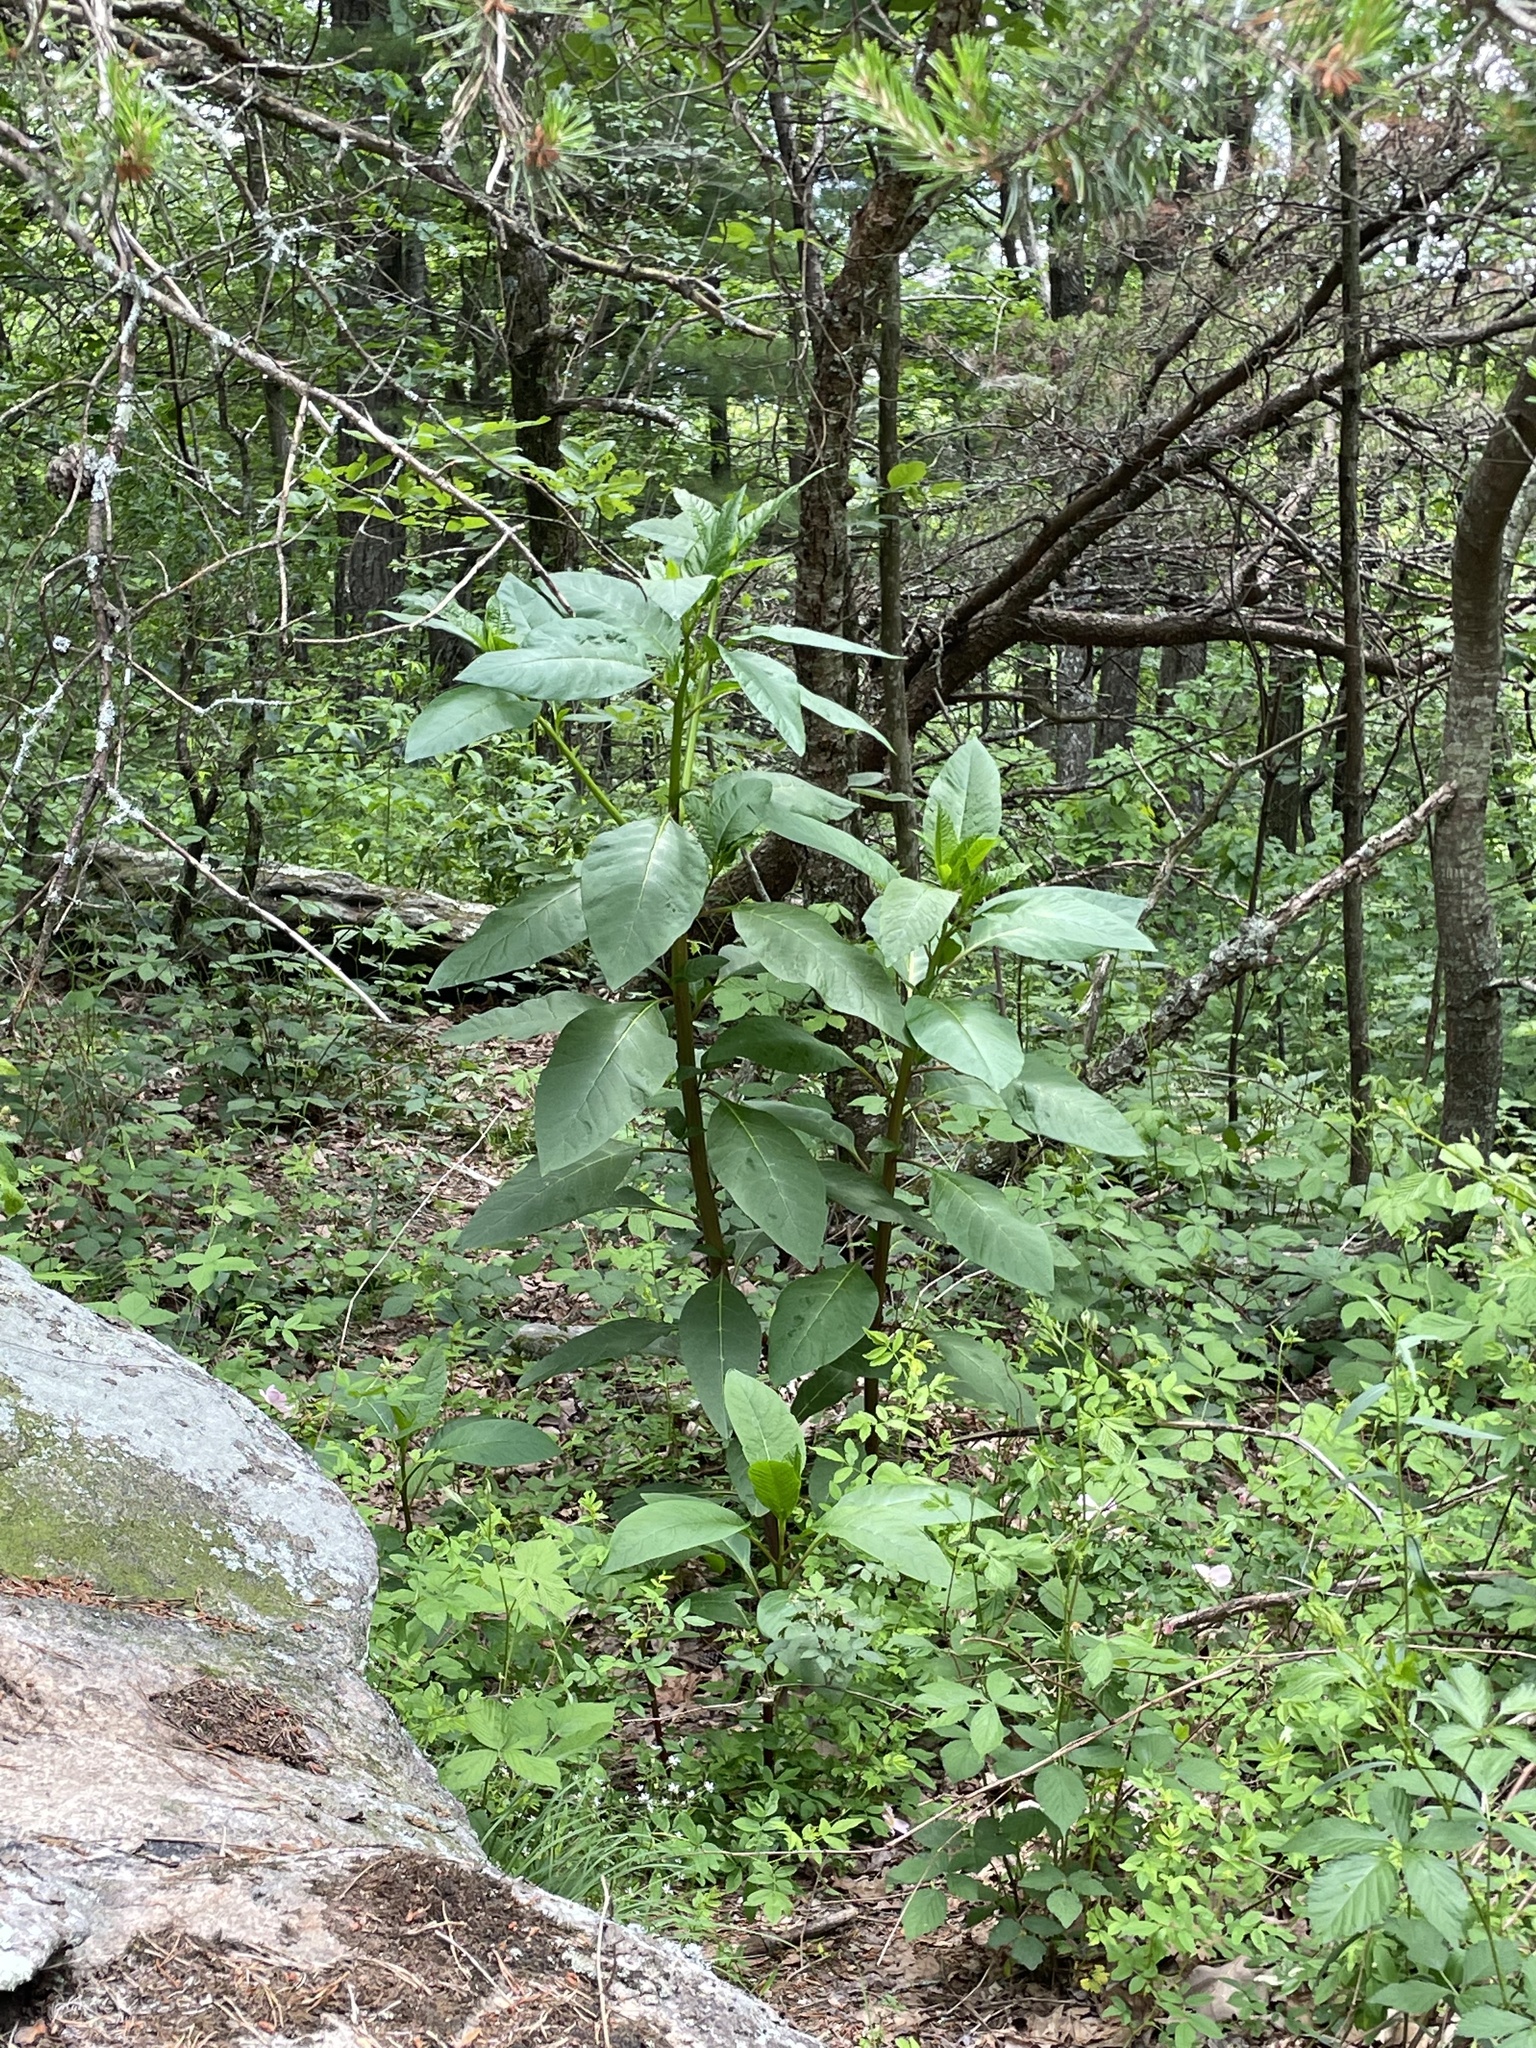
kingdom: Plantae
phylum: Tracheophyta
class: Magnoliopsida
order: Caryophyllales
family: Phytolaccaceae
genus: Phytolacca
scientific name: Phytolacca americana
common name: American pokeweed
